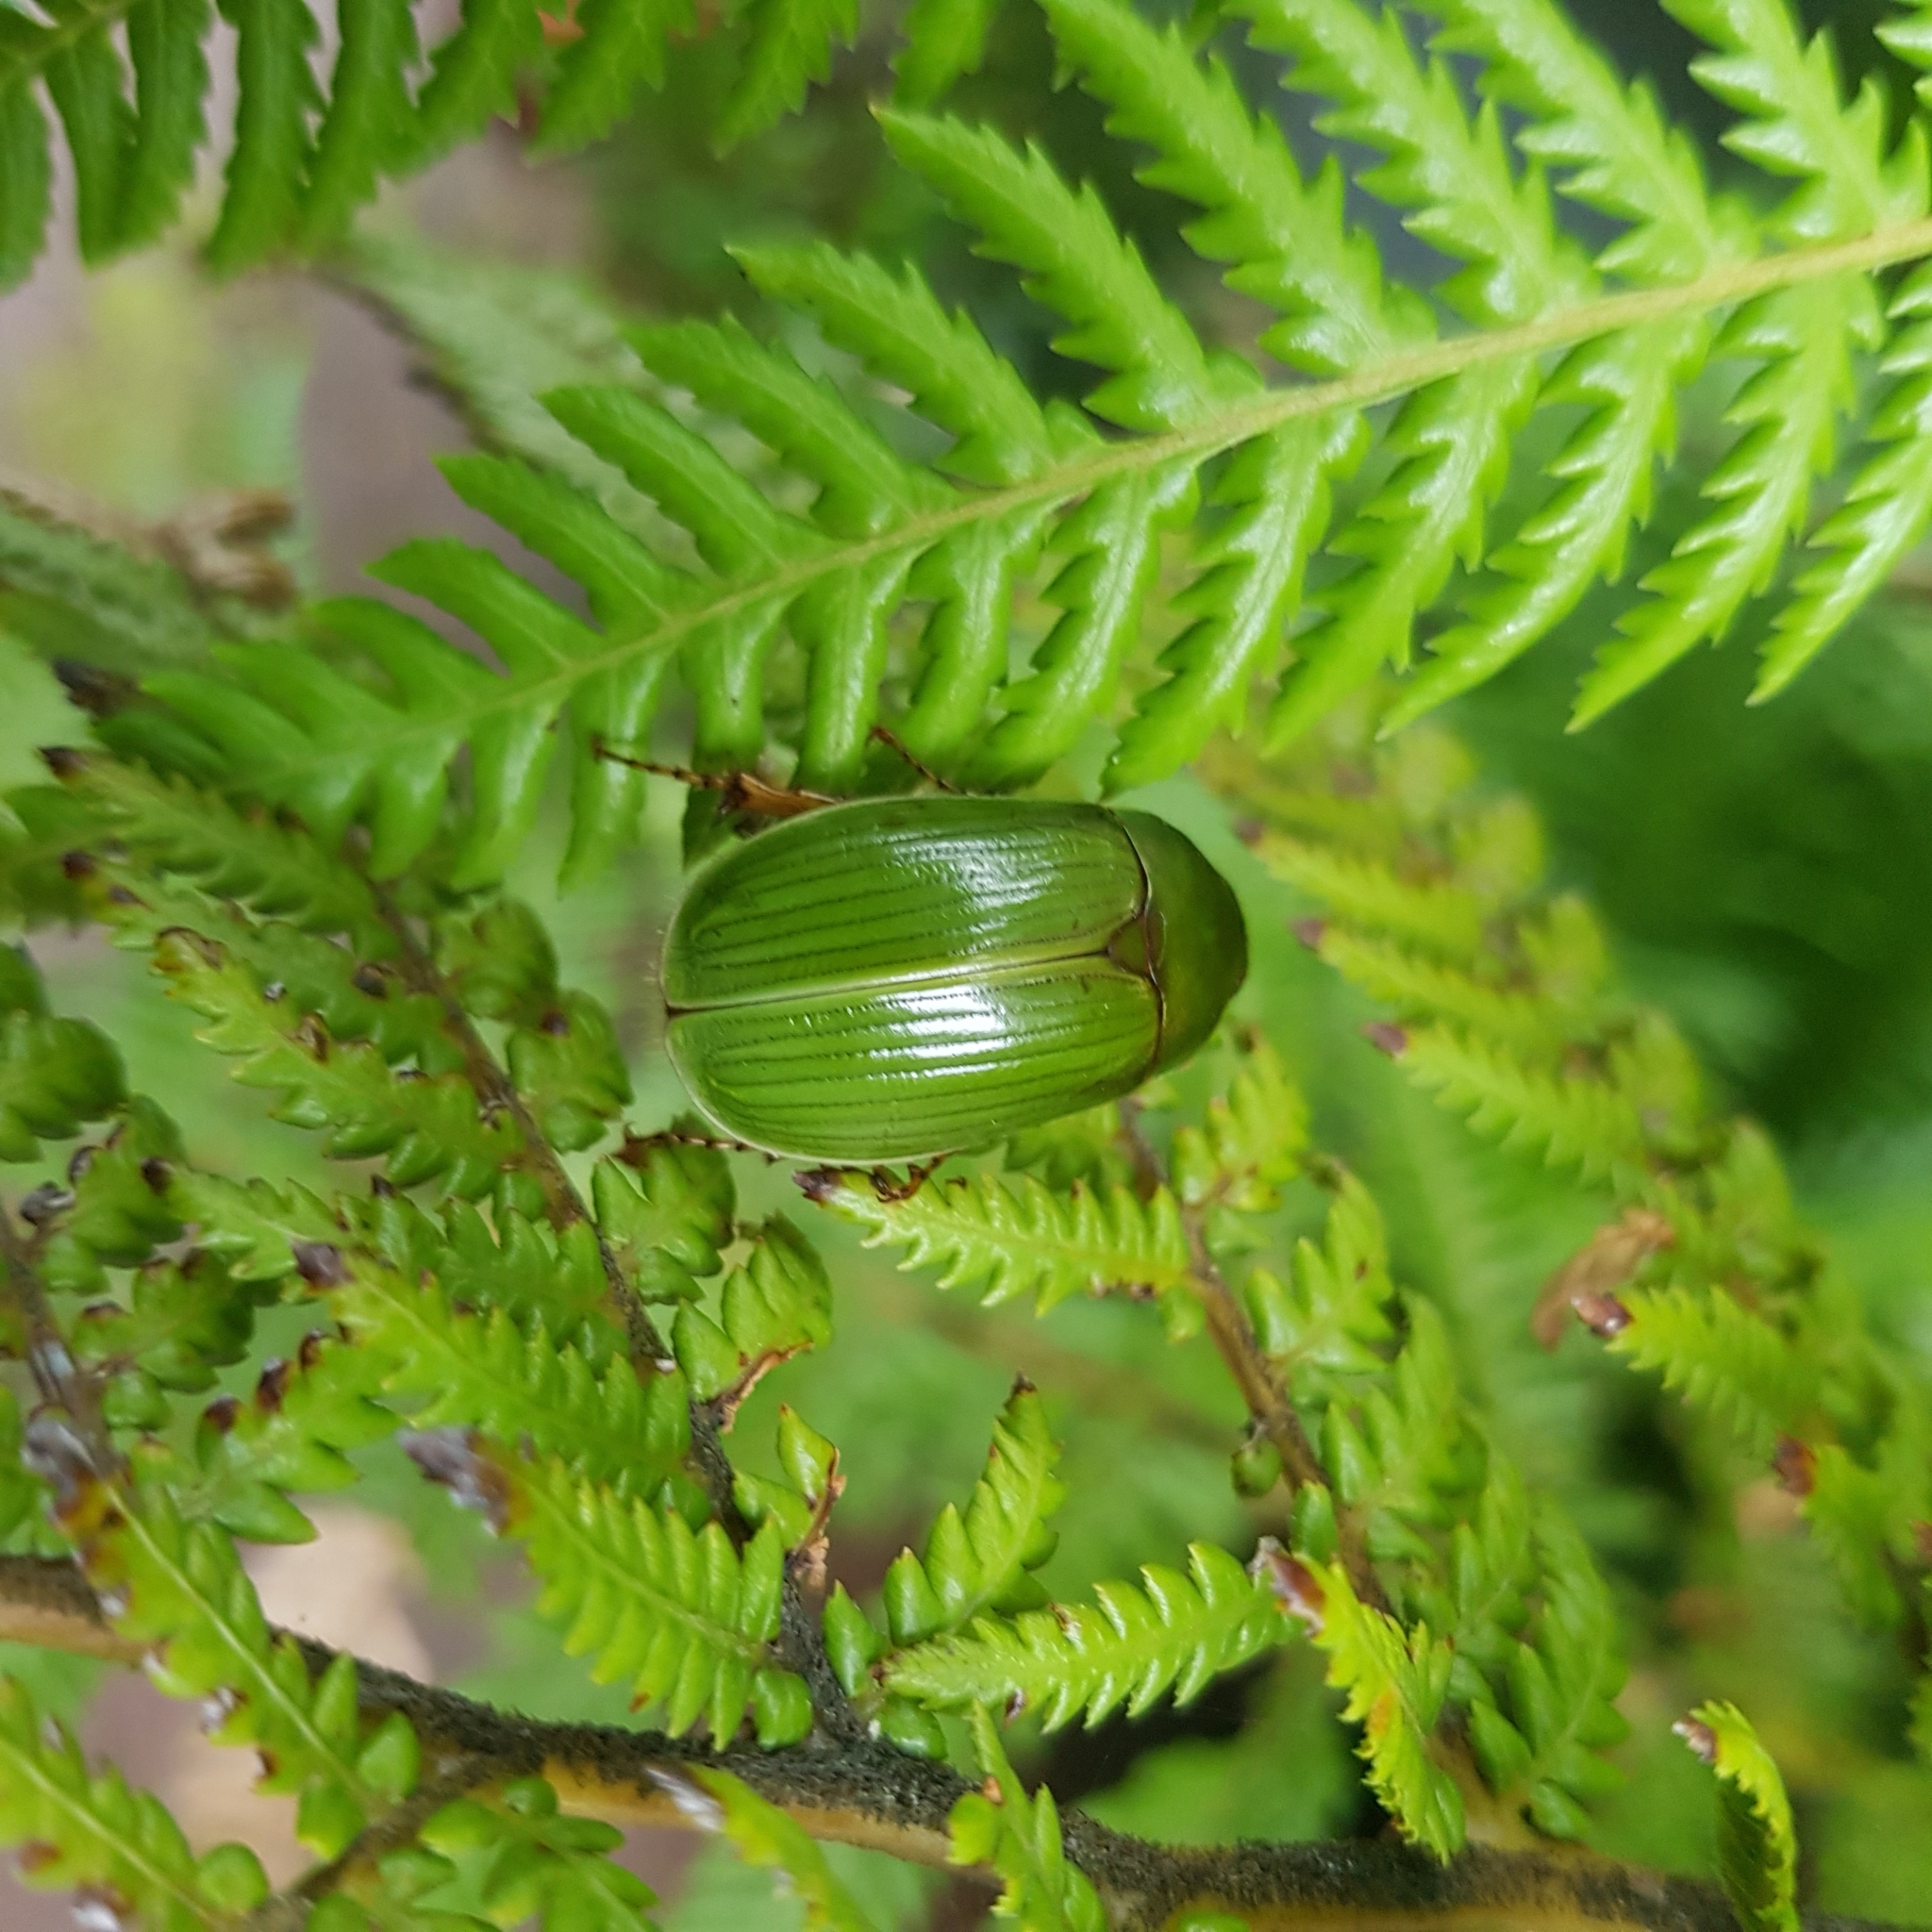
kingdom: Animalia
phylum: Arthropoda
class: Insecta
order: Coleoptera
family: Scarabaeidae
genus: Stethaspis
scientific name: Stethaspis longicornis
